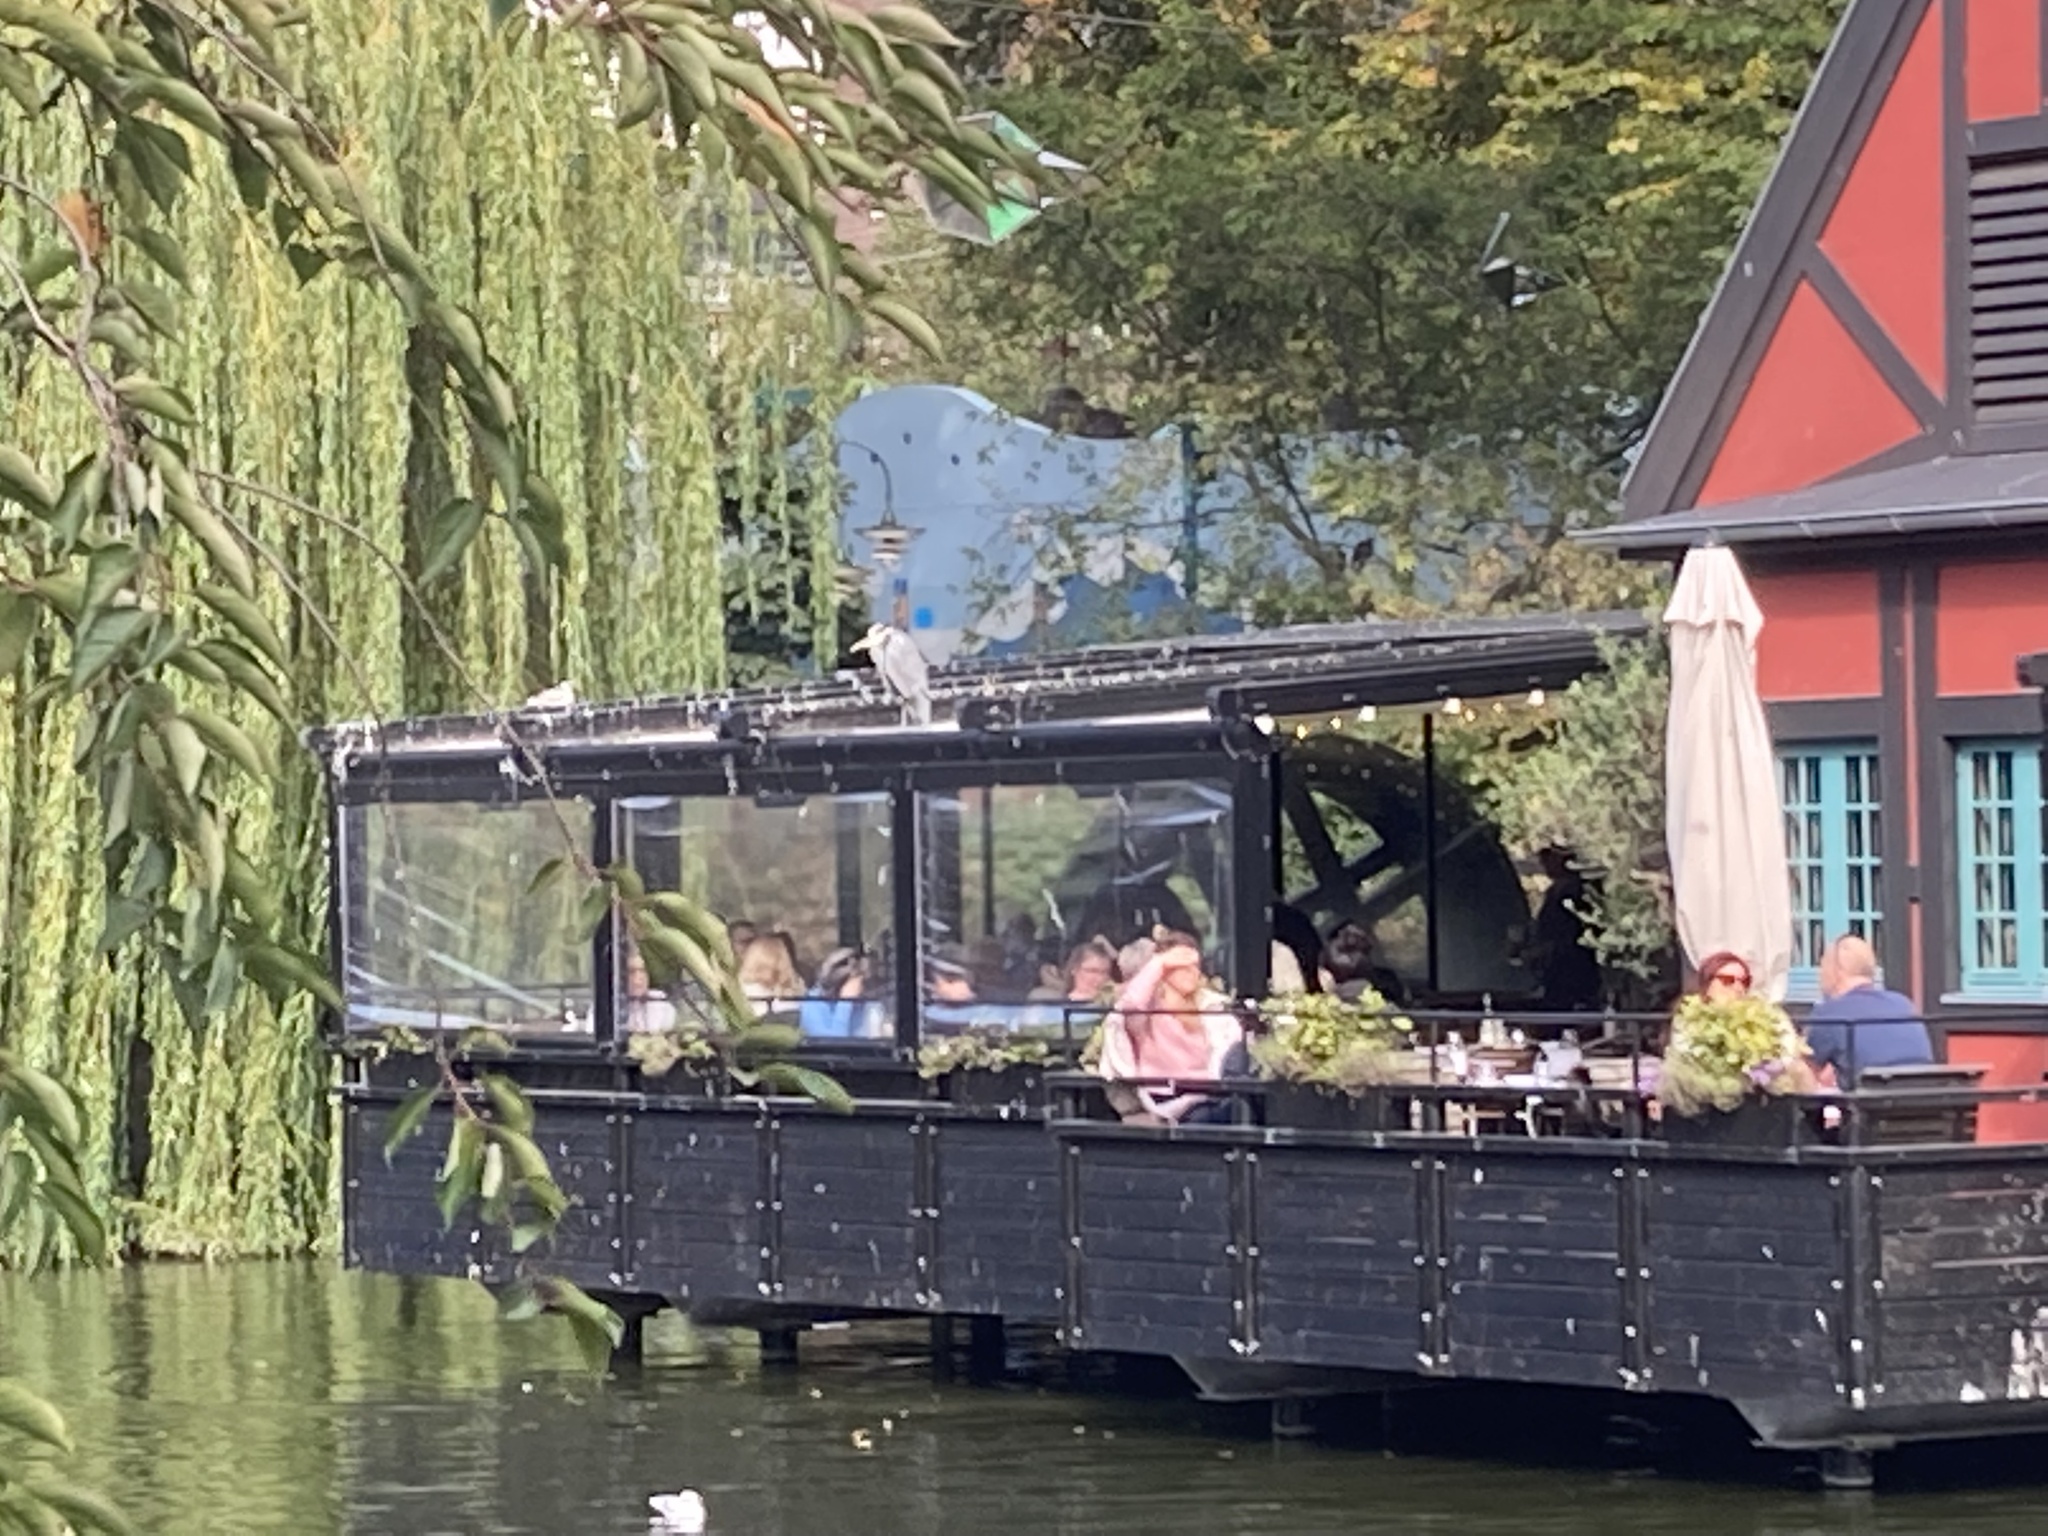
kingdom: Animalia
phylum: Chordata
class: Aves
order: Pelecaniformes
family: Ardeidae
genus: Ardea
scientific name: Ardea cinerea
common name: Grey heron
